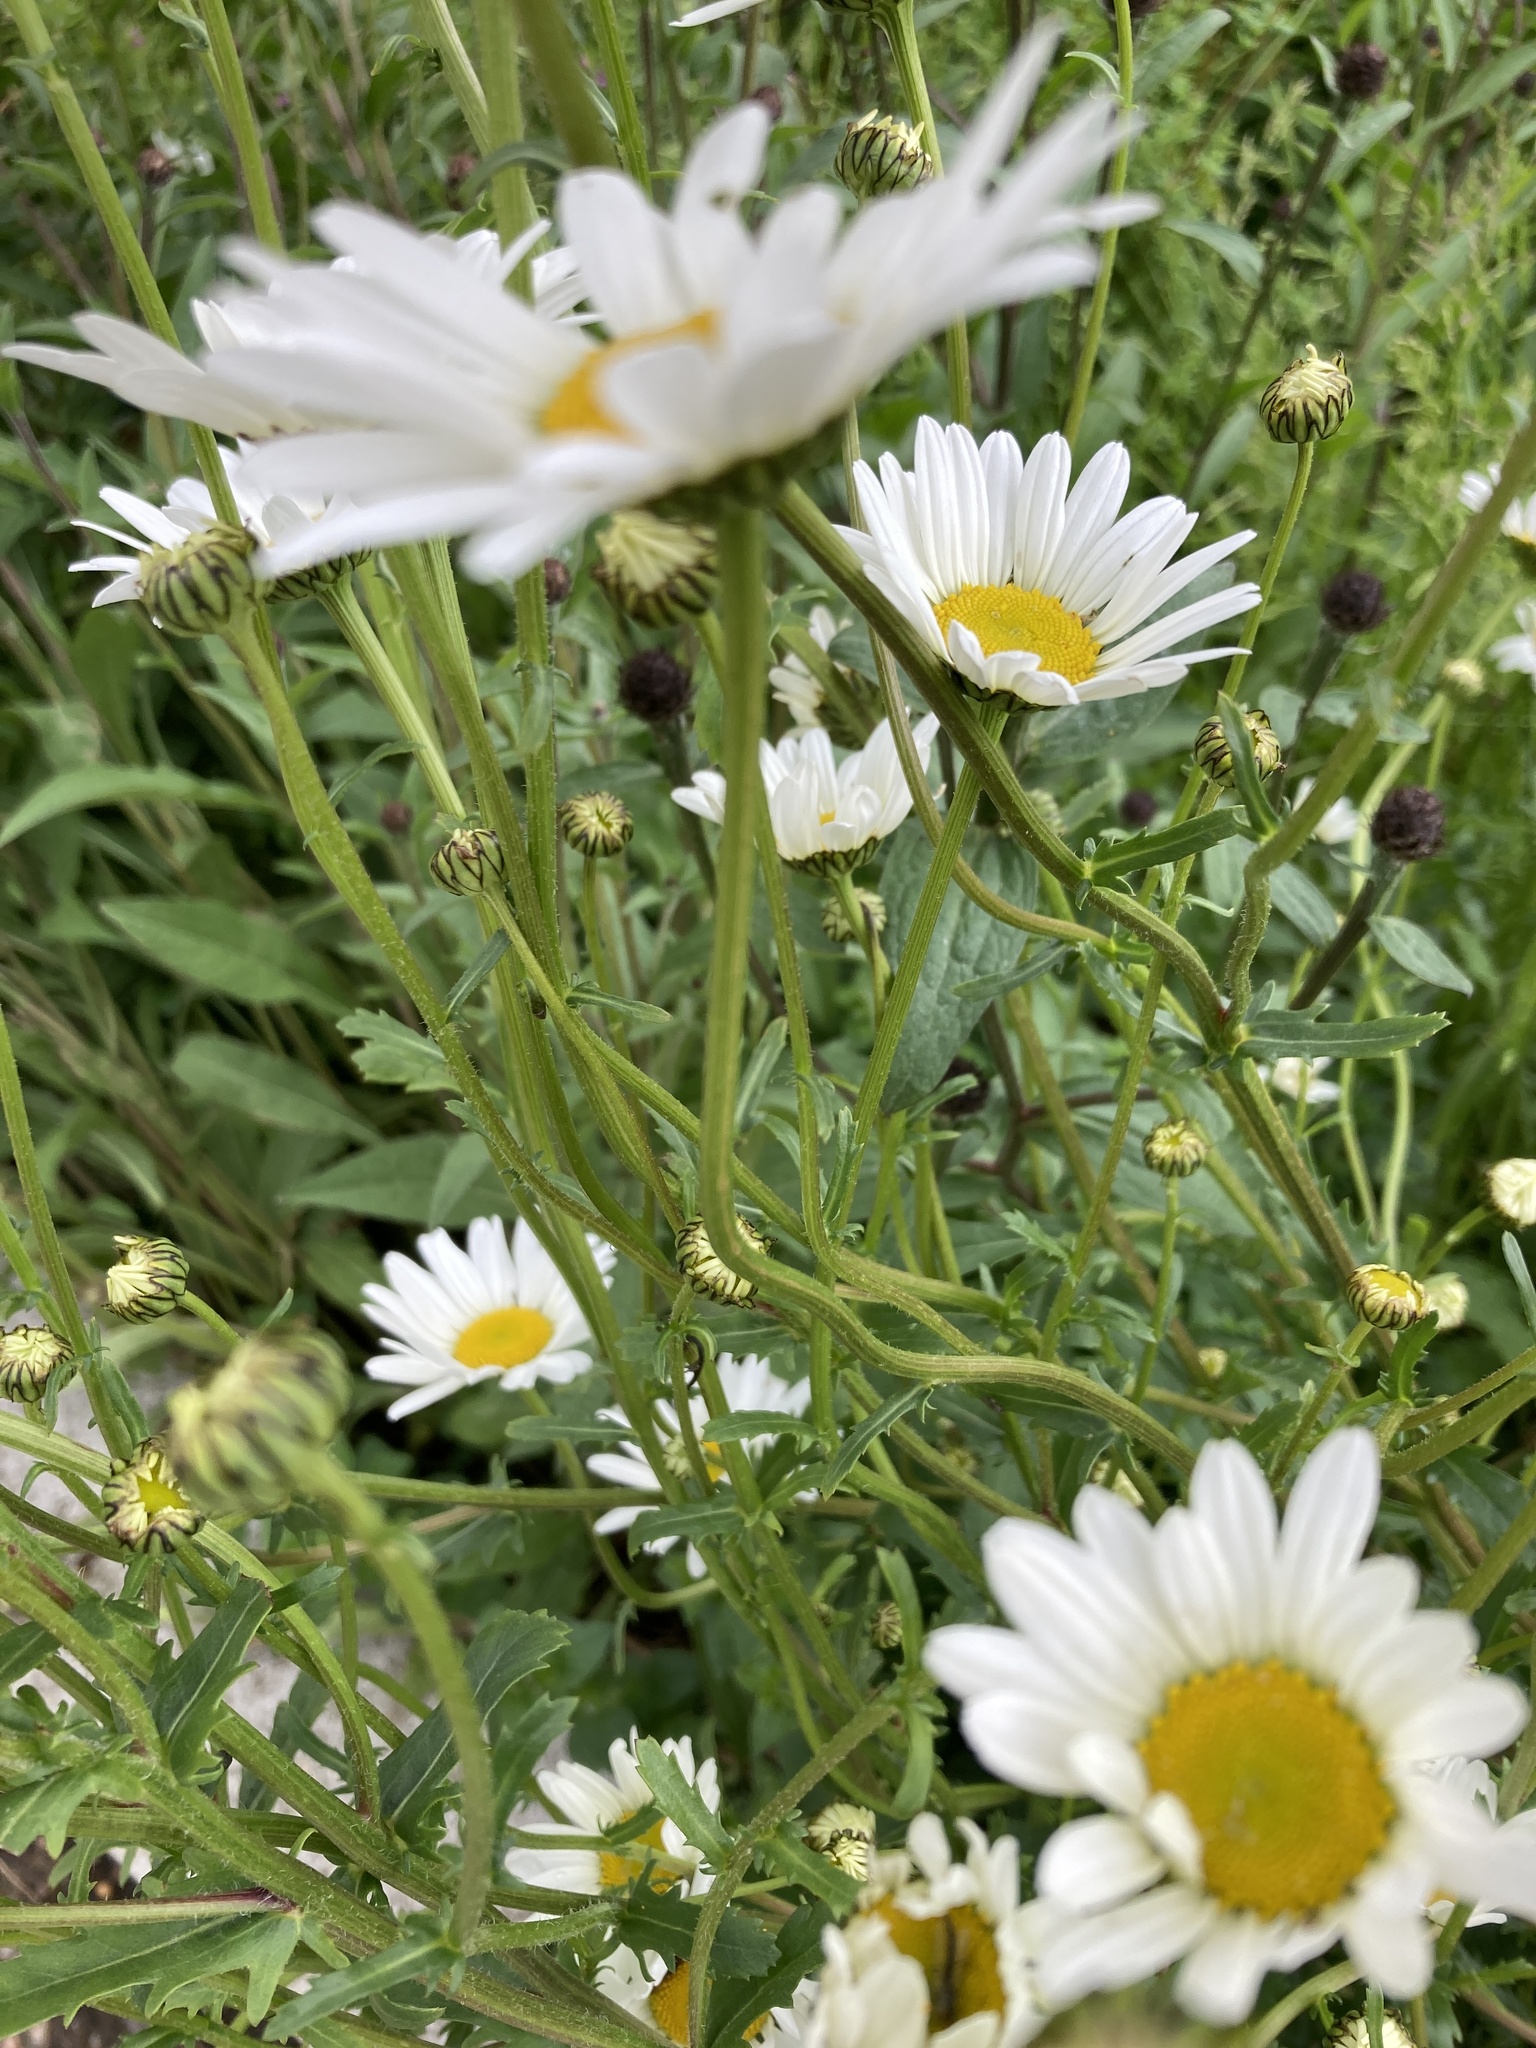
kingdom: Plantae
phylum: Tracheophyta
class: Magnoliopsida
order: Asterales
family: Asteraceae
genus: Leucanthemum
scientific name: Leucanthemum vulgare
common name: Oxeye daisy
